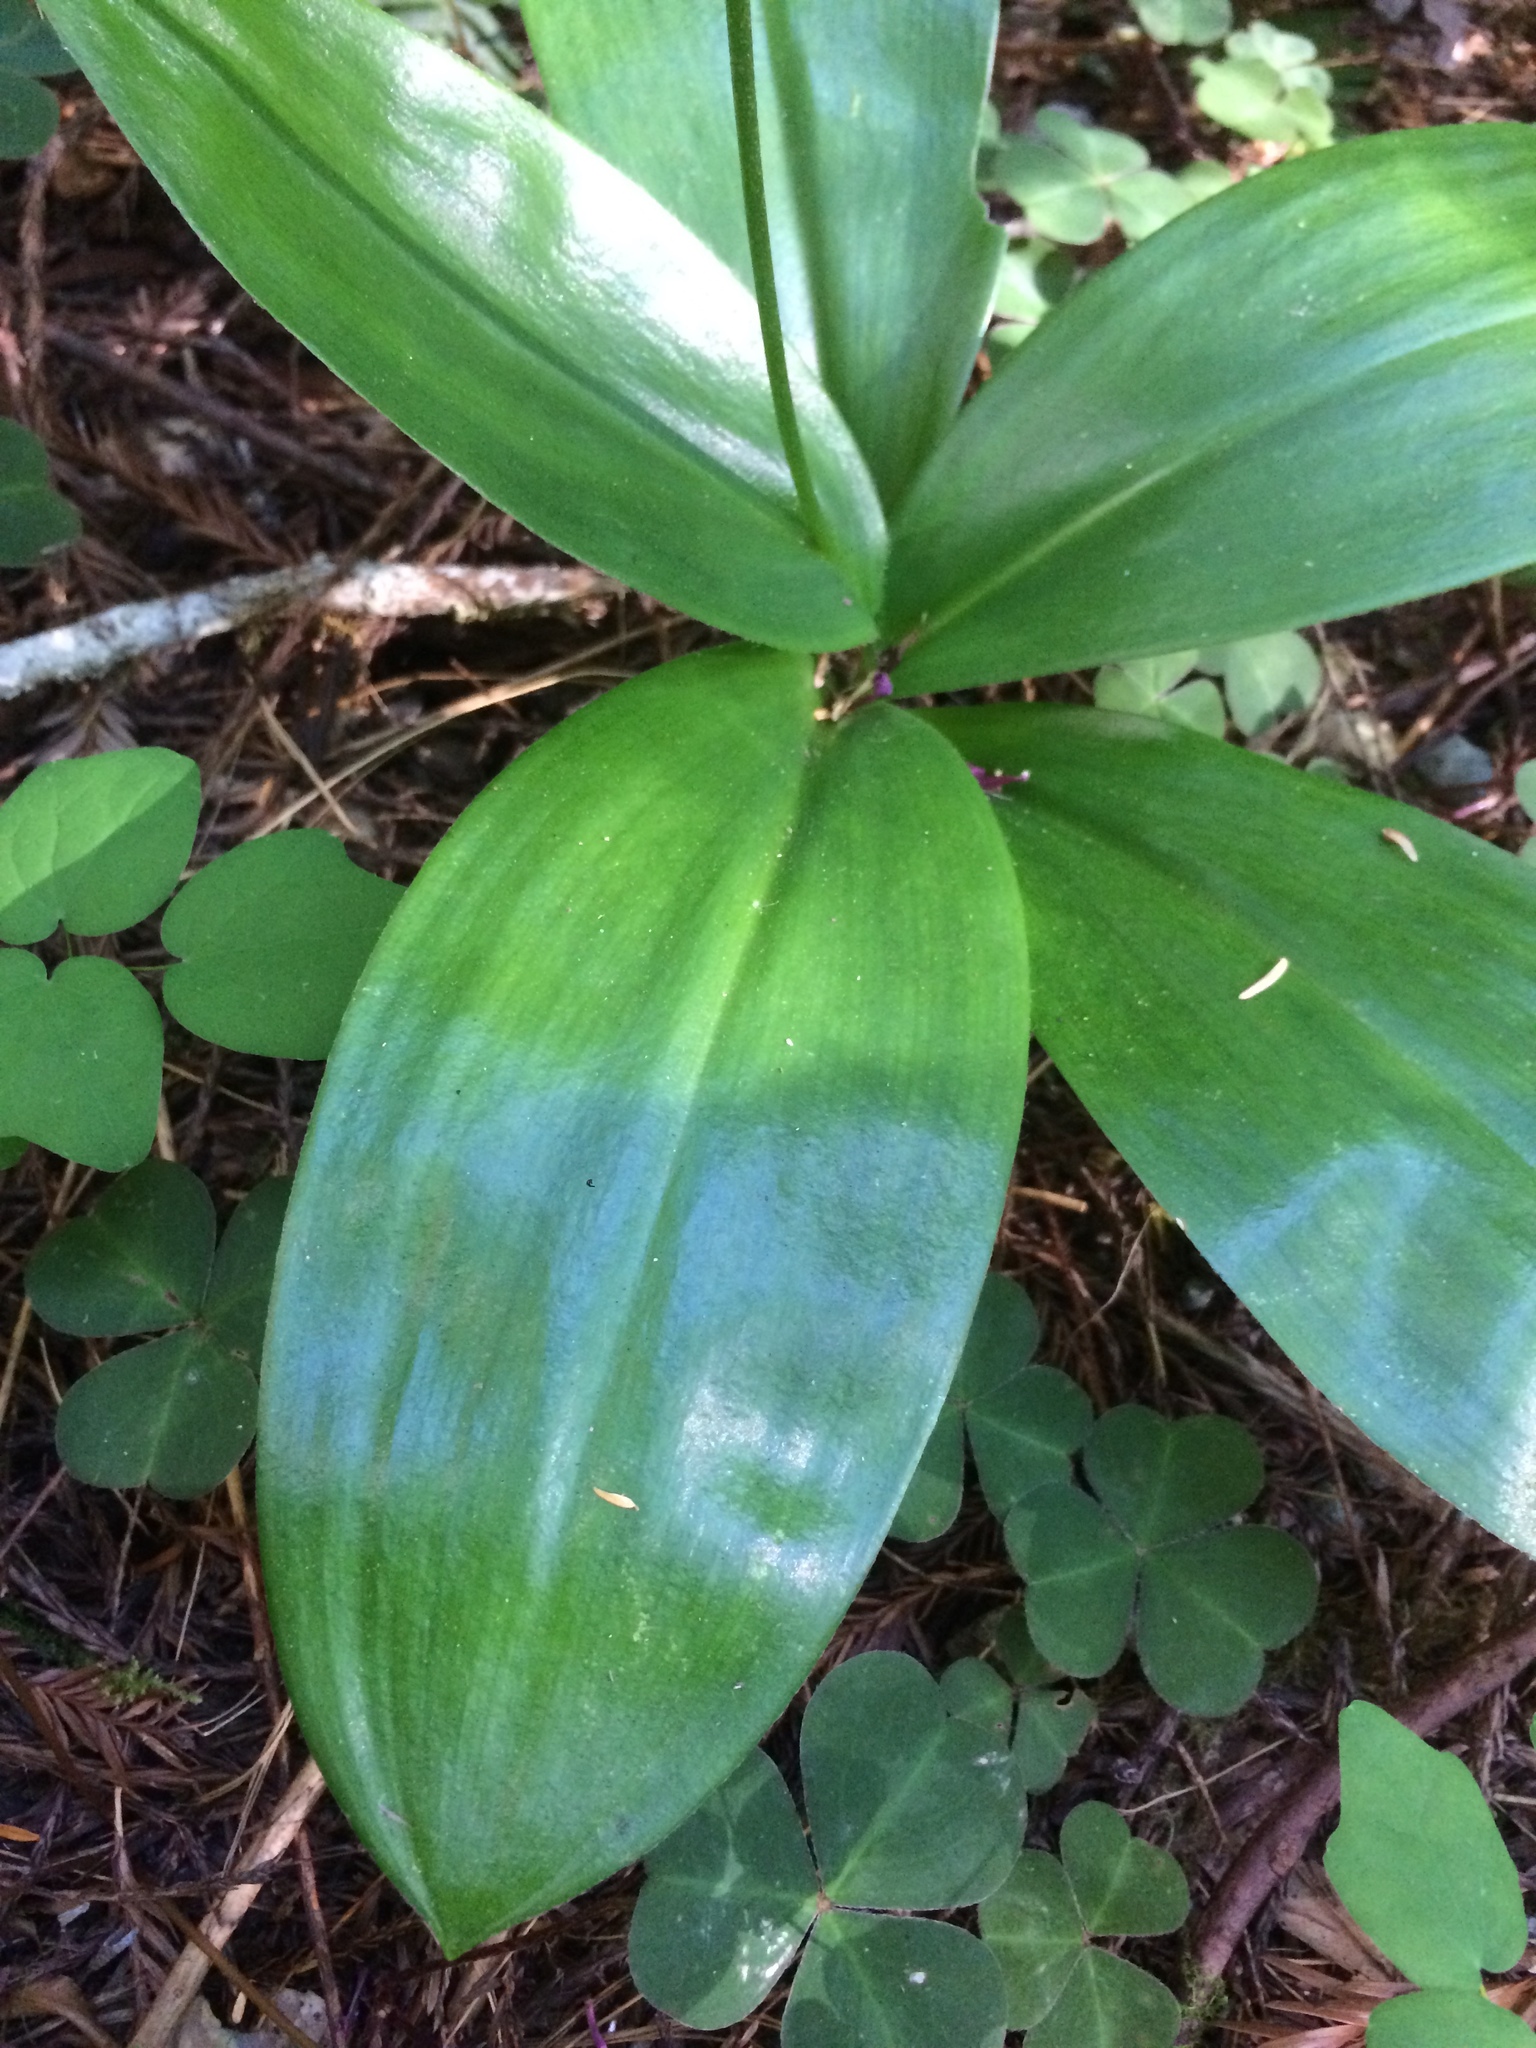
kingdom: Plantae
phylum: Tracheophyta
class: Liliopsida
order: Liliales
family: Liliaceae
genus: Clintonia
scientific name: Clintonia andrewsiana
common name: Red clintonia
